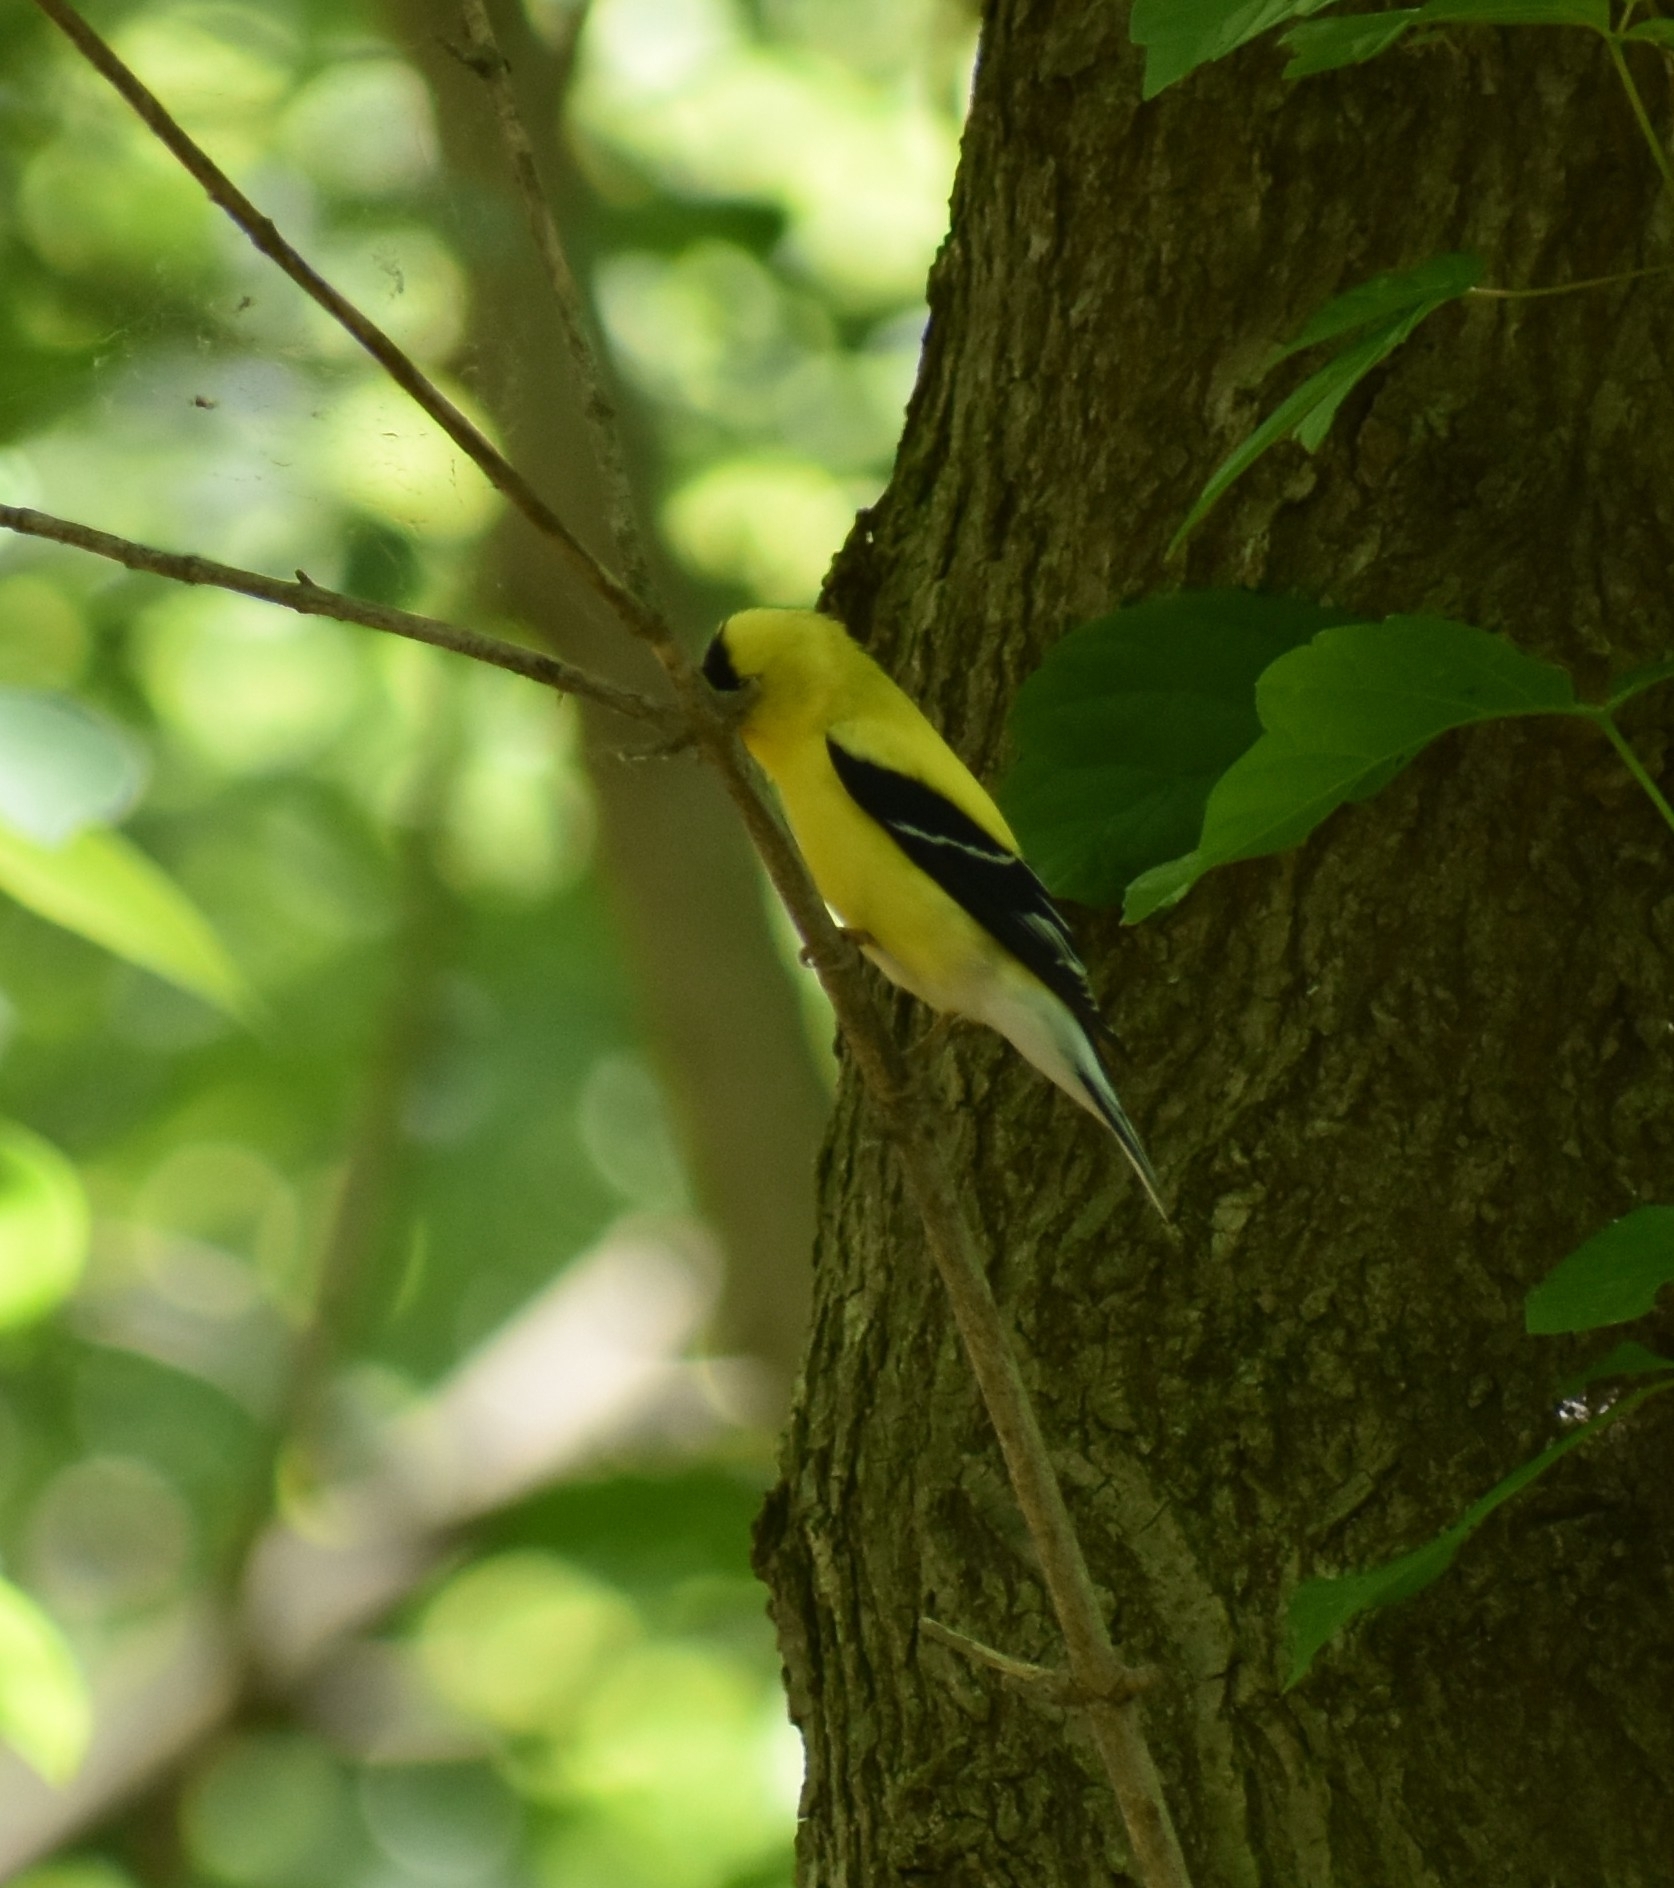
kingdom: Animalia
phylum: Chordata
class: Aves
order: Passeriformes
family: Fringillidae
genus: Spinus
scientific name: Spinus tristis
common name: American goldfinch
